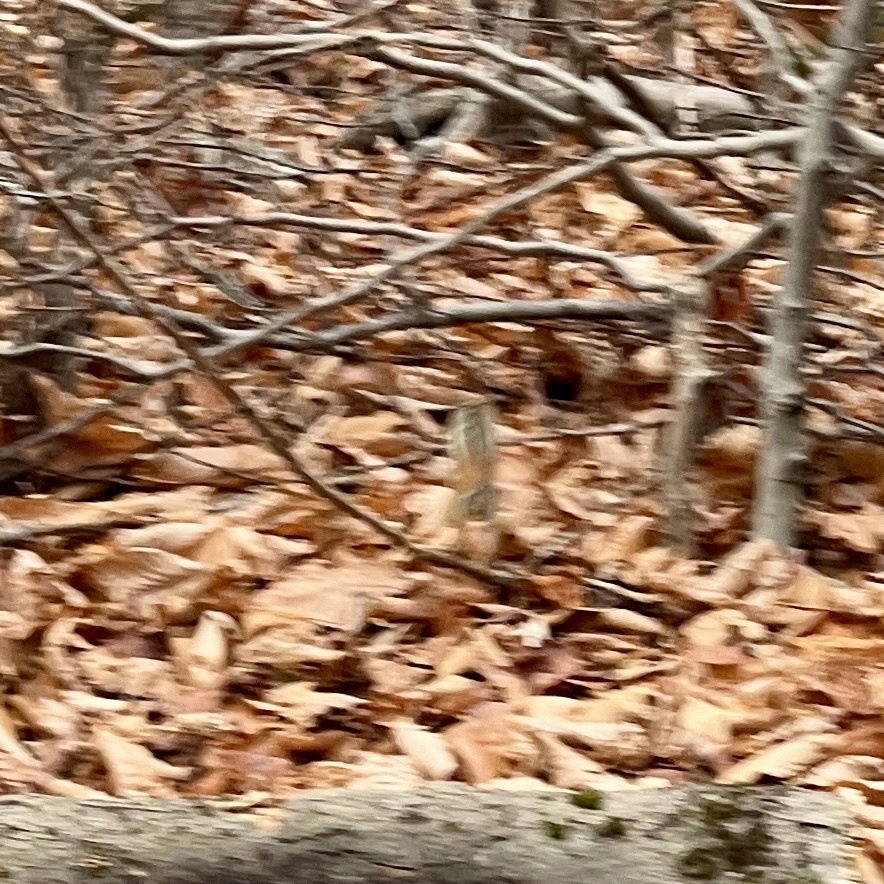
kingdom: Animalia
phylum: Chordata
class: Mammalia
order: Rodentia
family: Sciuridae
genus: Tamias
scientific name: Tamias striatus
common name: Eastern chipmunk
